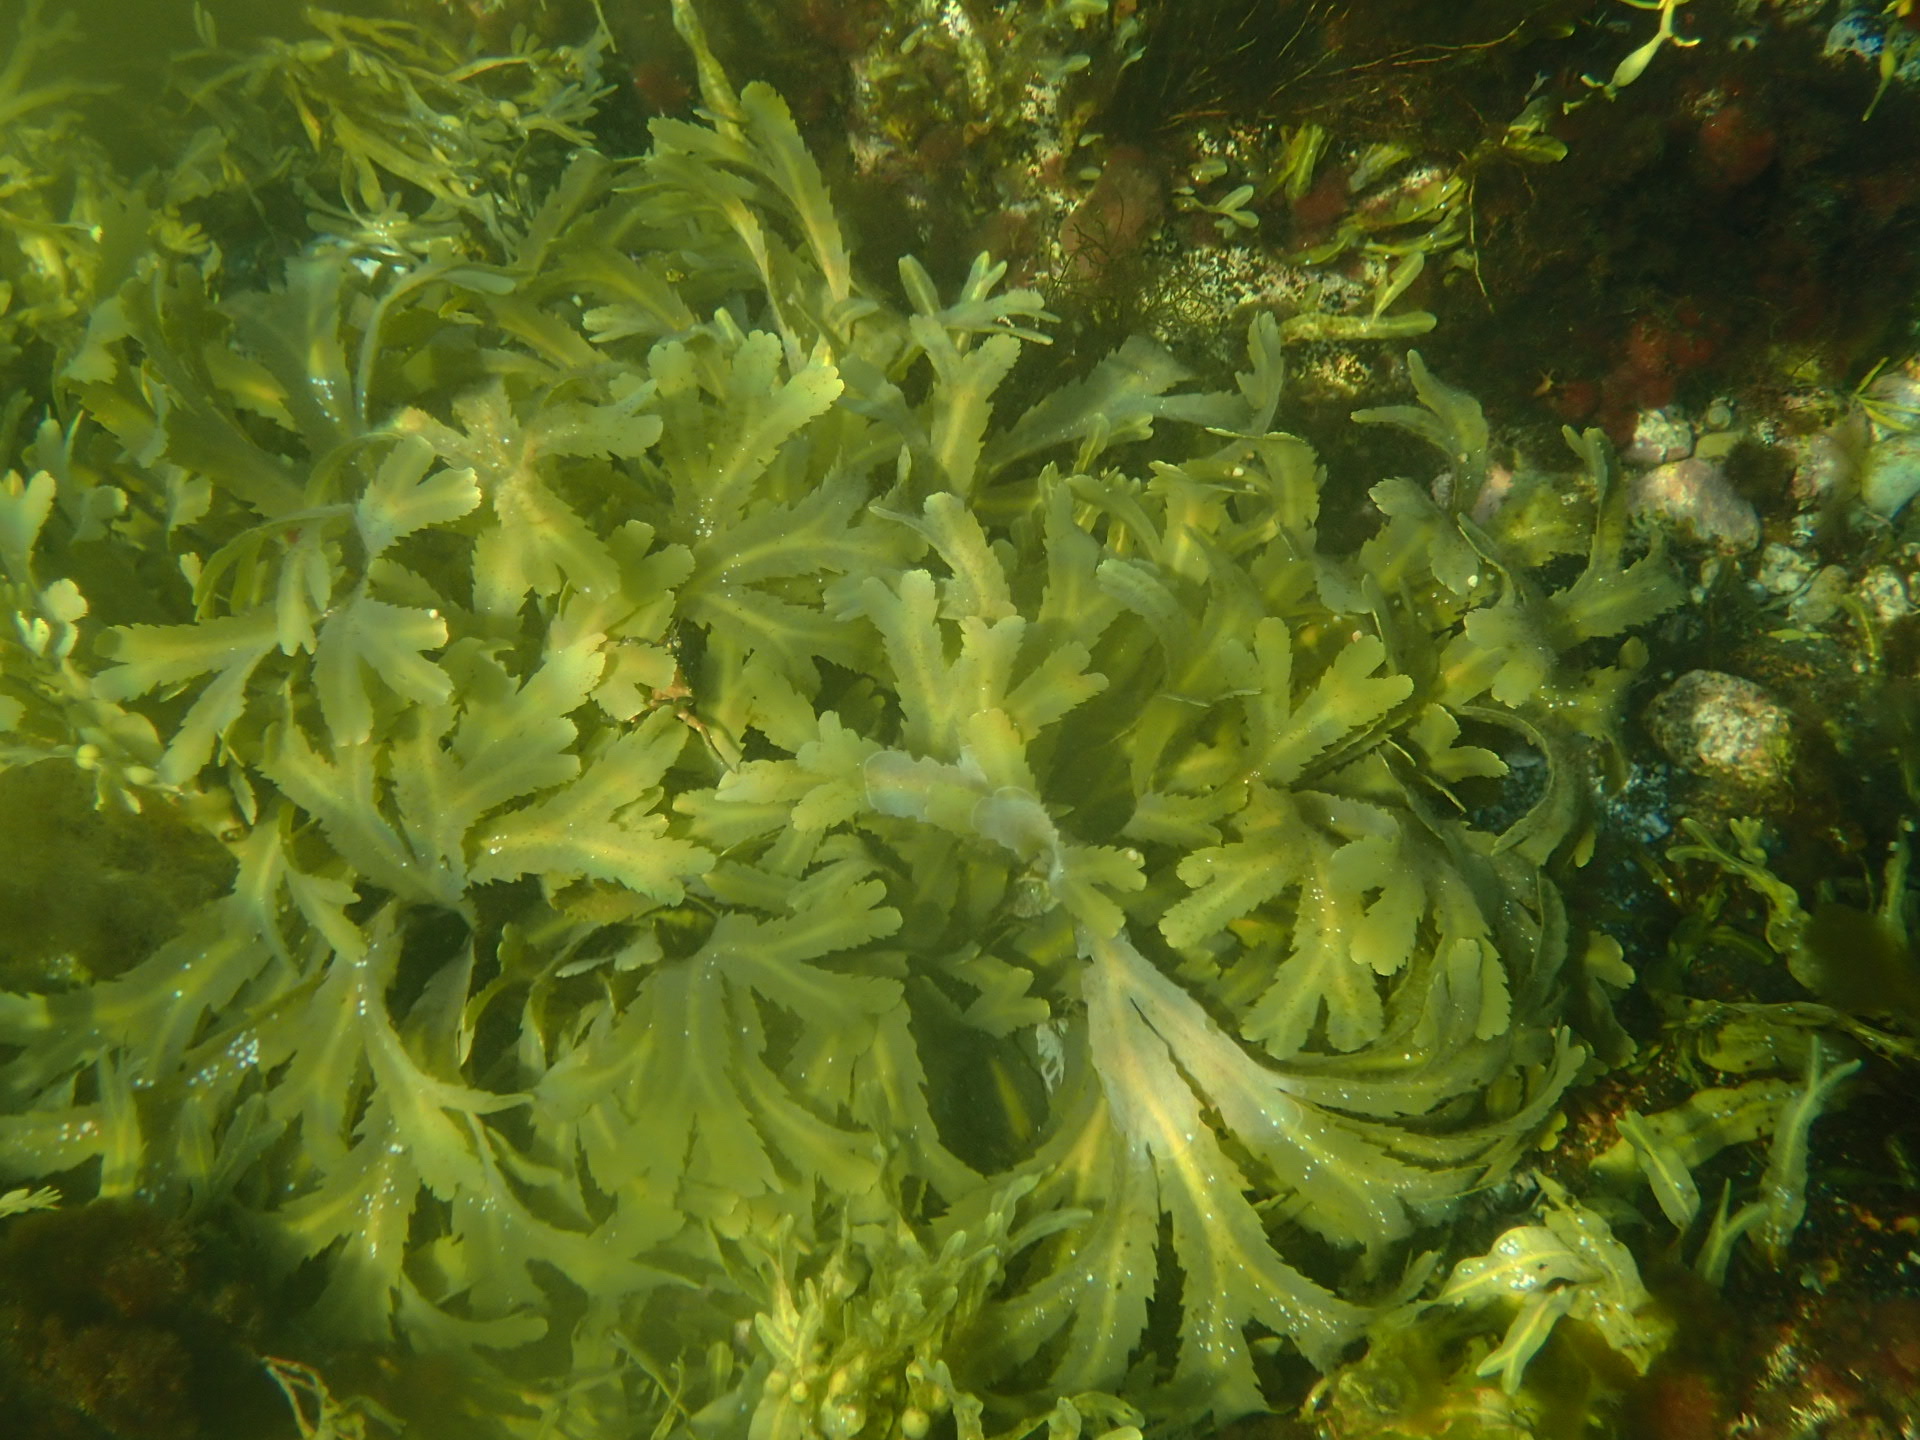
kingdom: Chromista
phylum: Ochrophyta
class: Phaeophyceae
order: Fucales
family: Fucaceae
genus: Fucus
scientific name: Fucus serratus
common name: Toothed wrack
